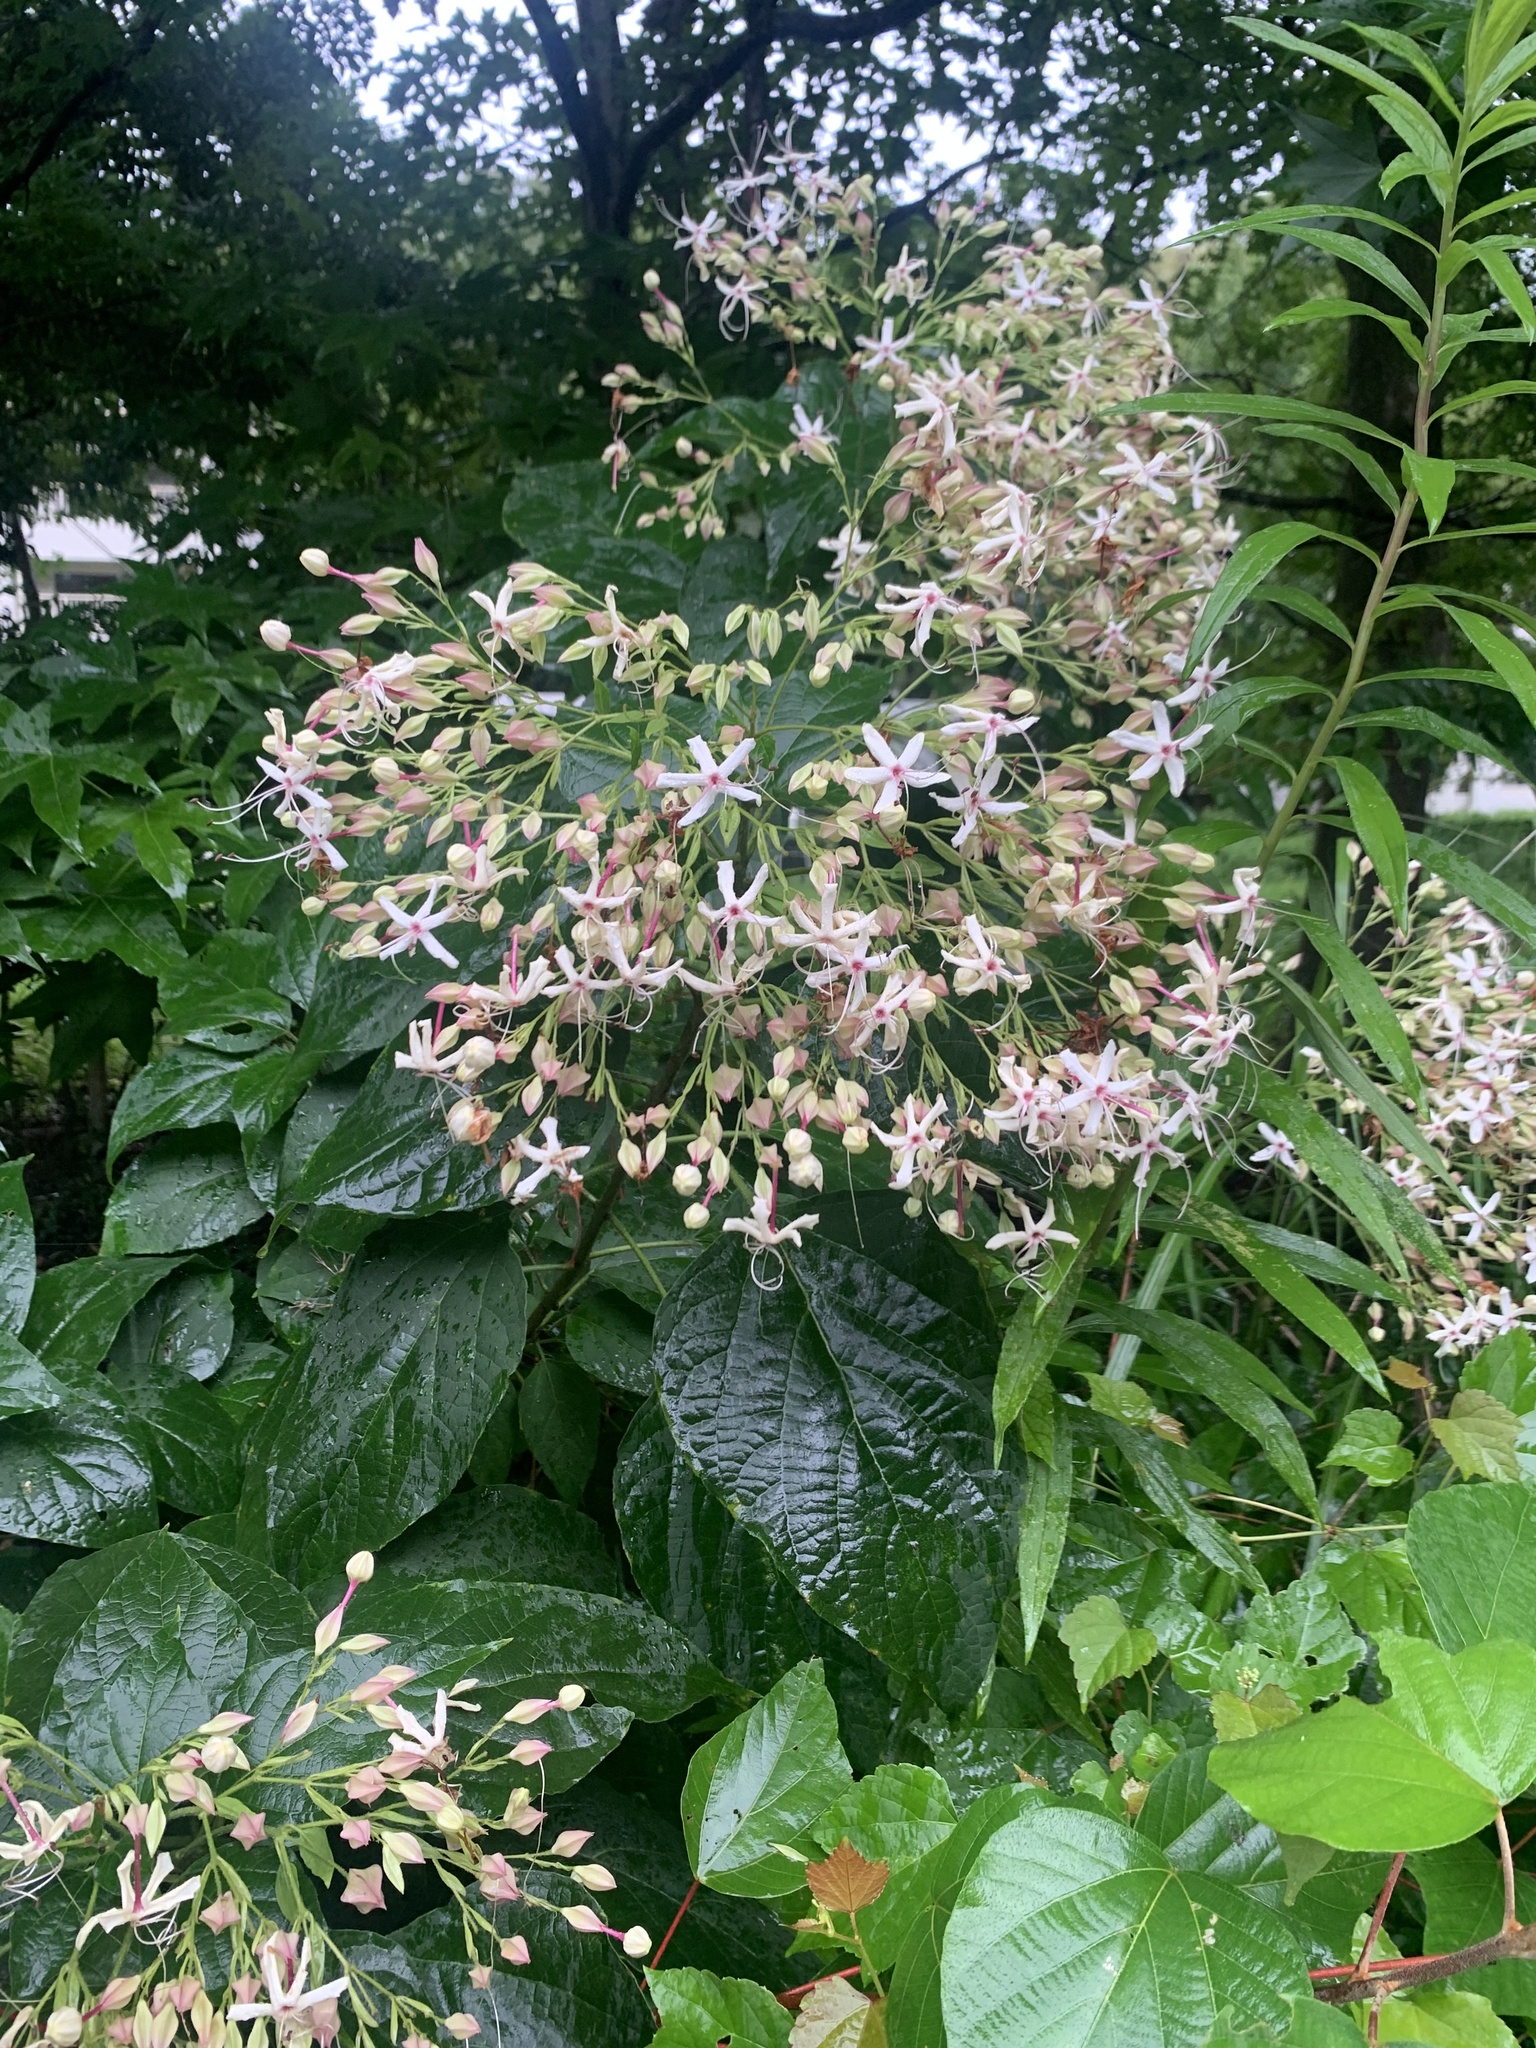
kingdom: Plantae
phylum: Tracheophyta
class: Magnoliopsida
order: Lamiales
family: Lamiaceae
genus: Clerodendrum
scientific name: Clerodendrum trichotomum
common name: Harlequin glorybower
